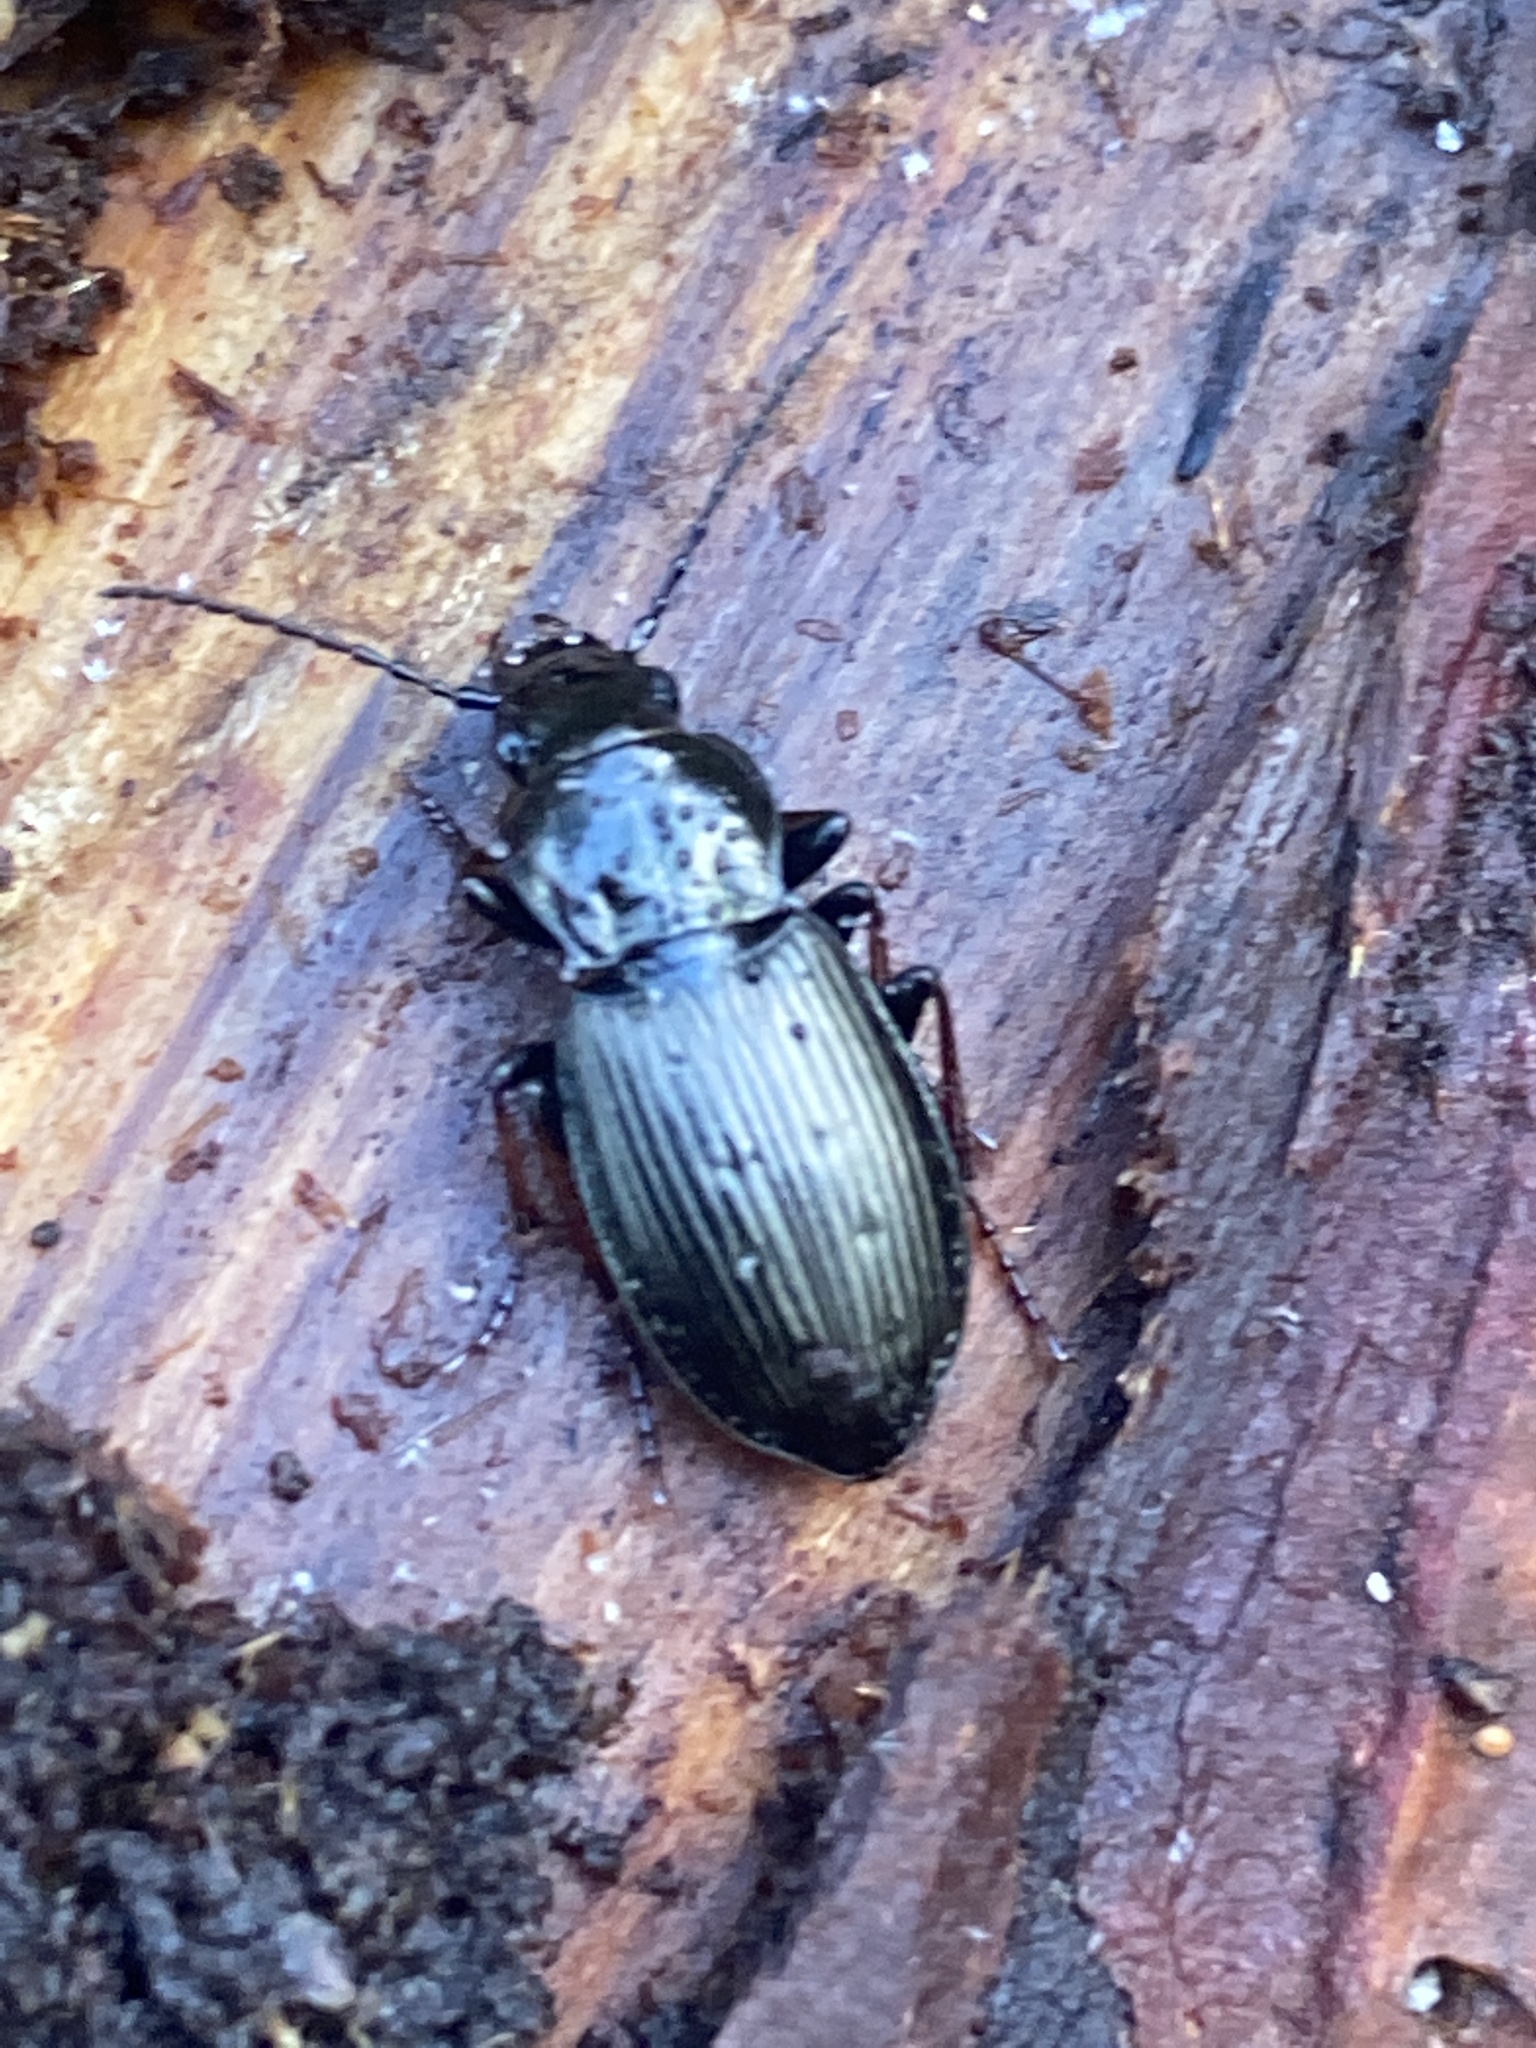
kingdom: Animalia
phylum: Arthropoda
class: Insecta
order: Coleoptera
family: Carabidae
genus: Pterostichus
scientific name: Pterostichus oblongopunctatus
